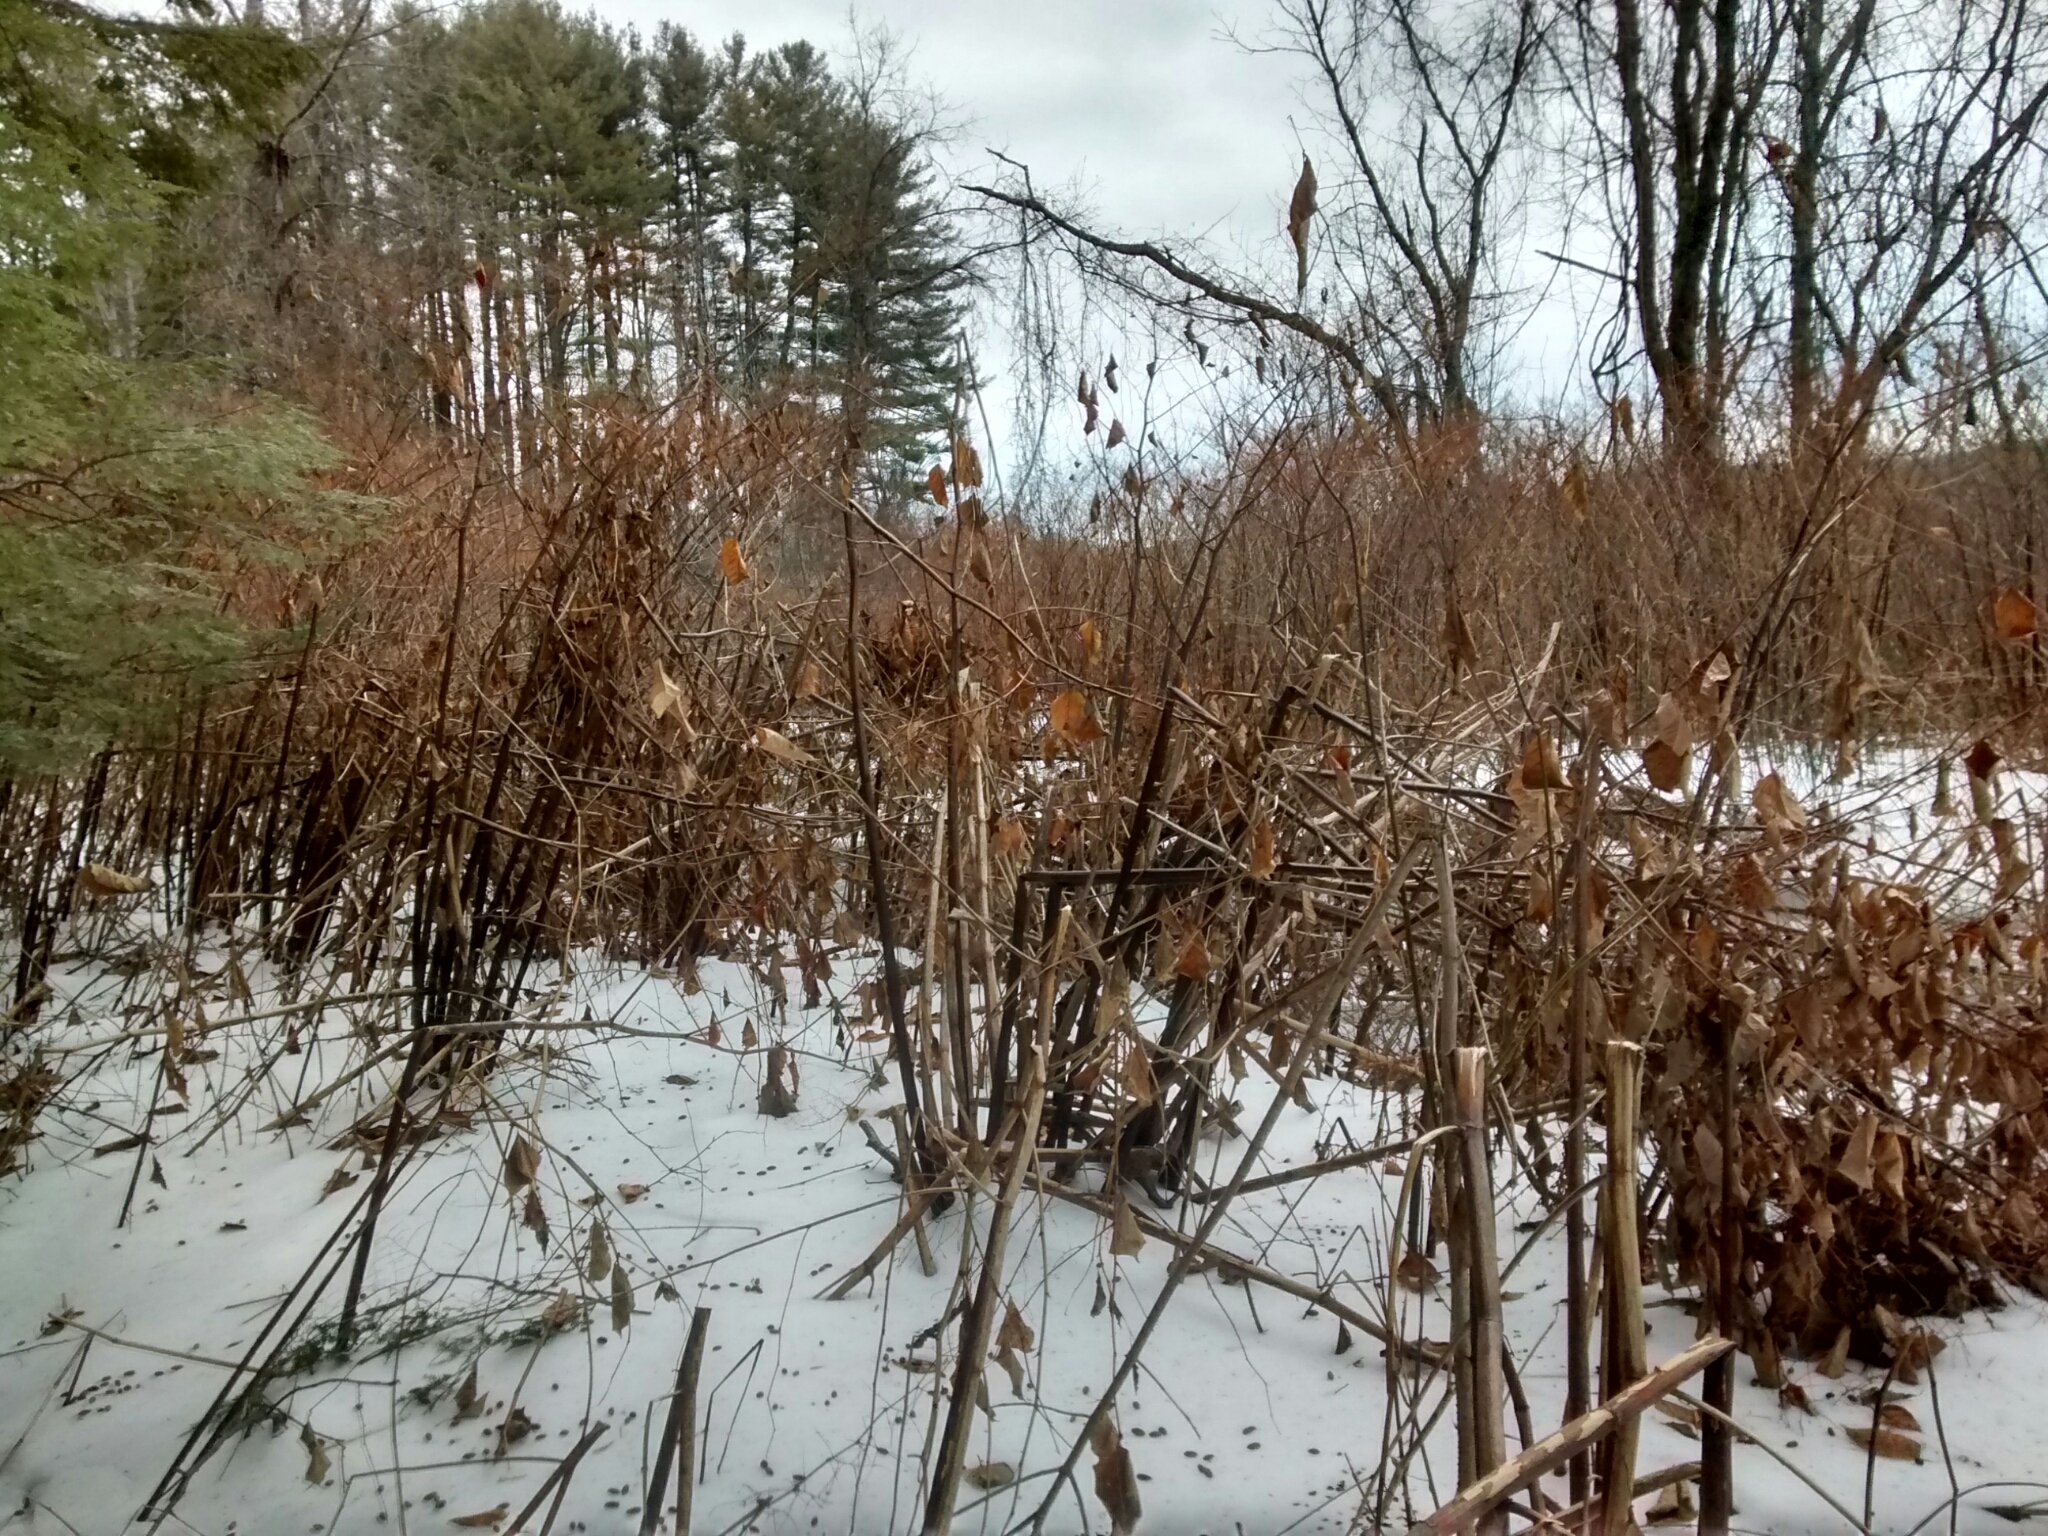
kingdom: Plantae
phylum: Tracheophyta
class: Magnoliopsida
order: Caryophyllales
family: Polygonaceae
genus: Reynoutria
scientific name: Reynoutria japonica
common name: Japanese knotweed
